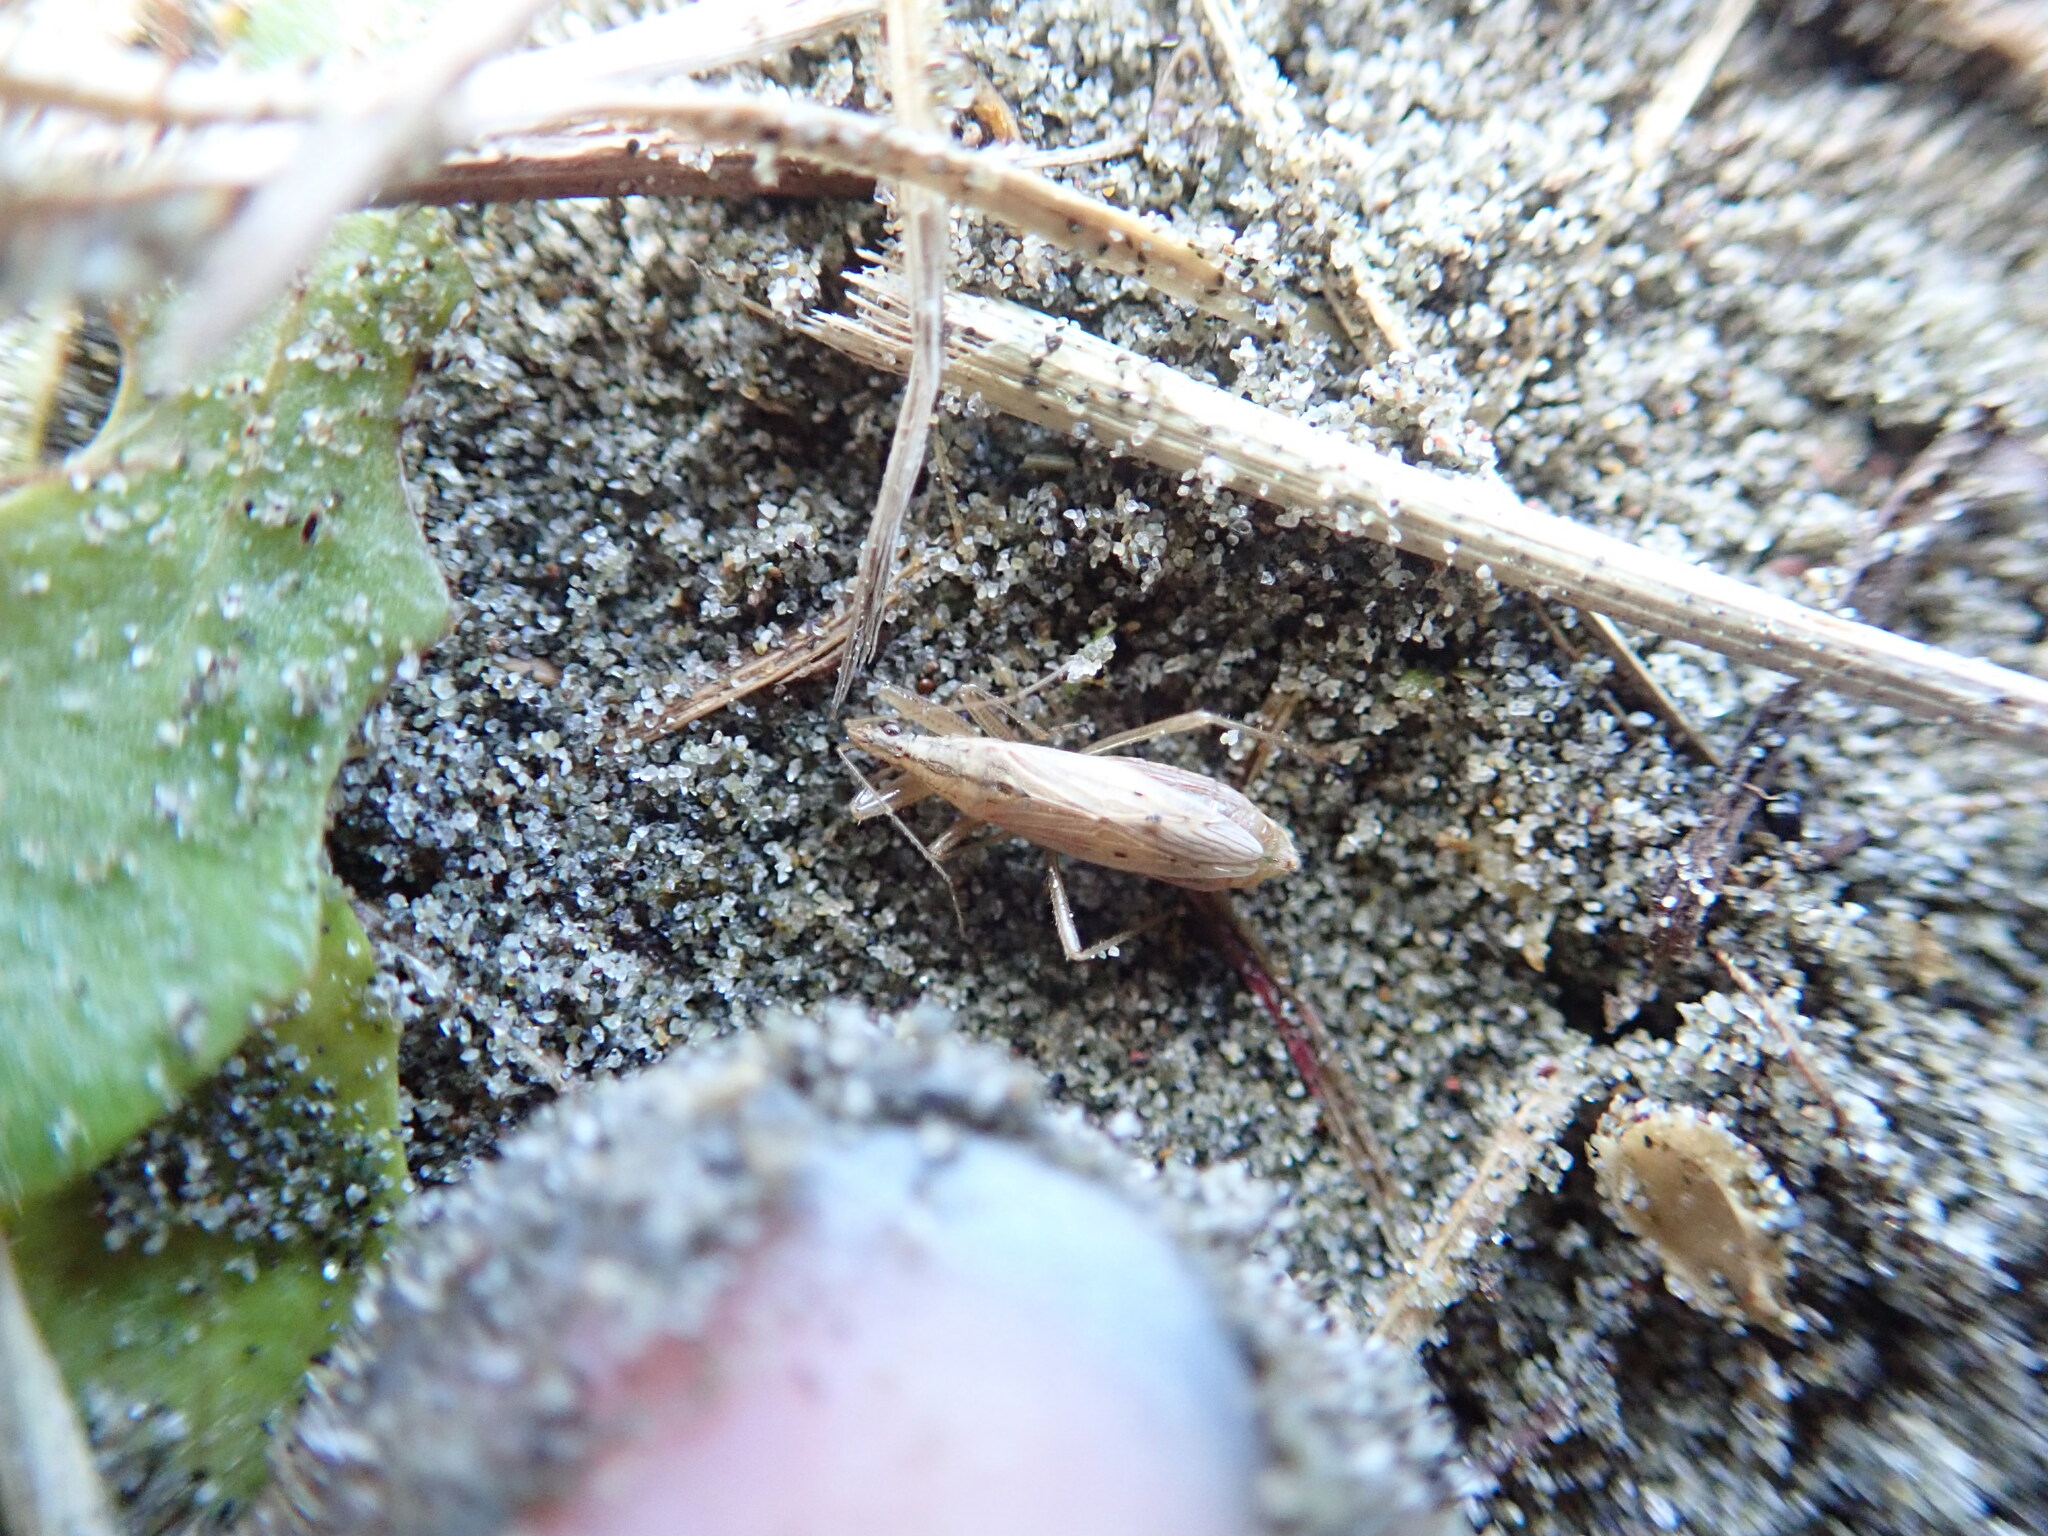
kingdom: Animalia
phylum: Arthropoda
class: Insecta
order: Hemiptera
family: Nabidae
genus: Nabis
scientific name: Nabis
